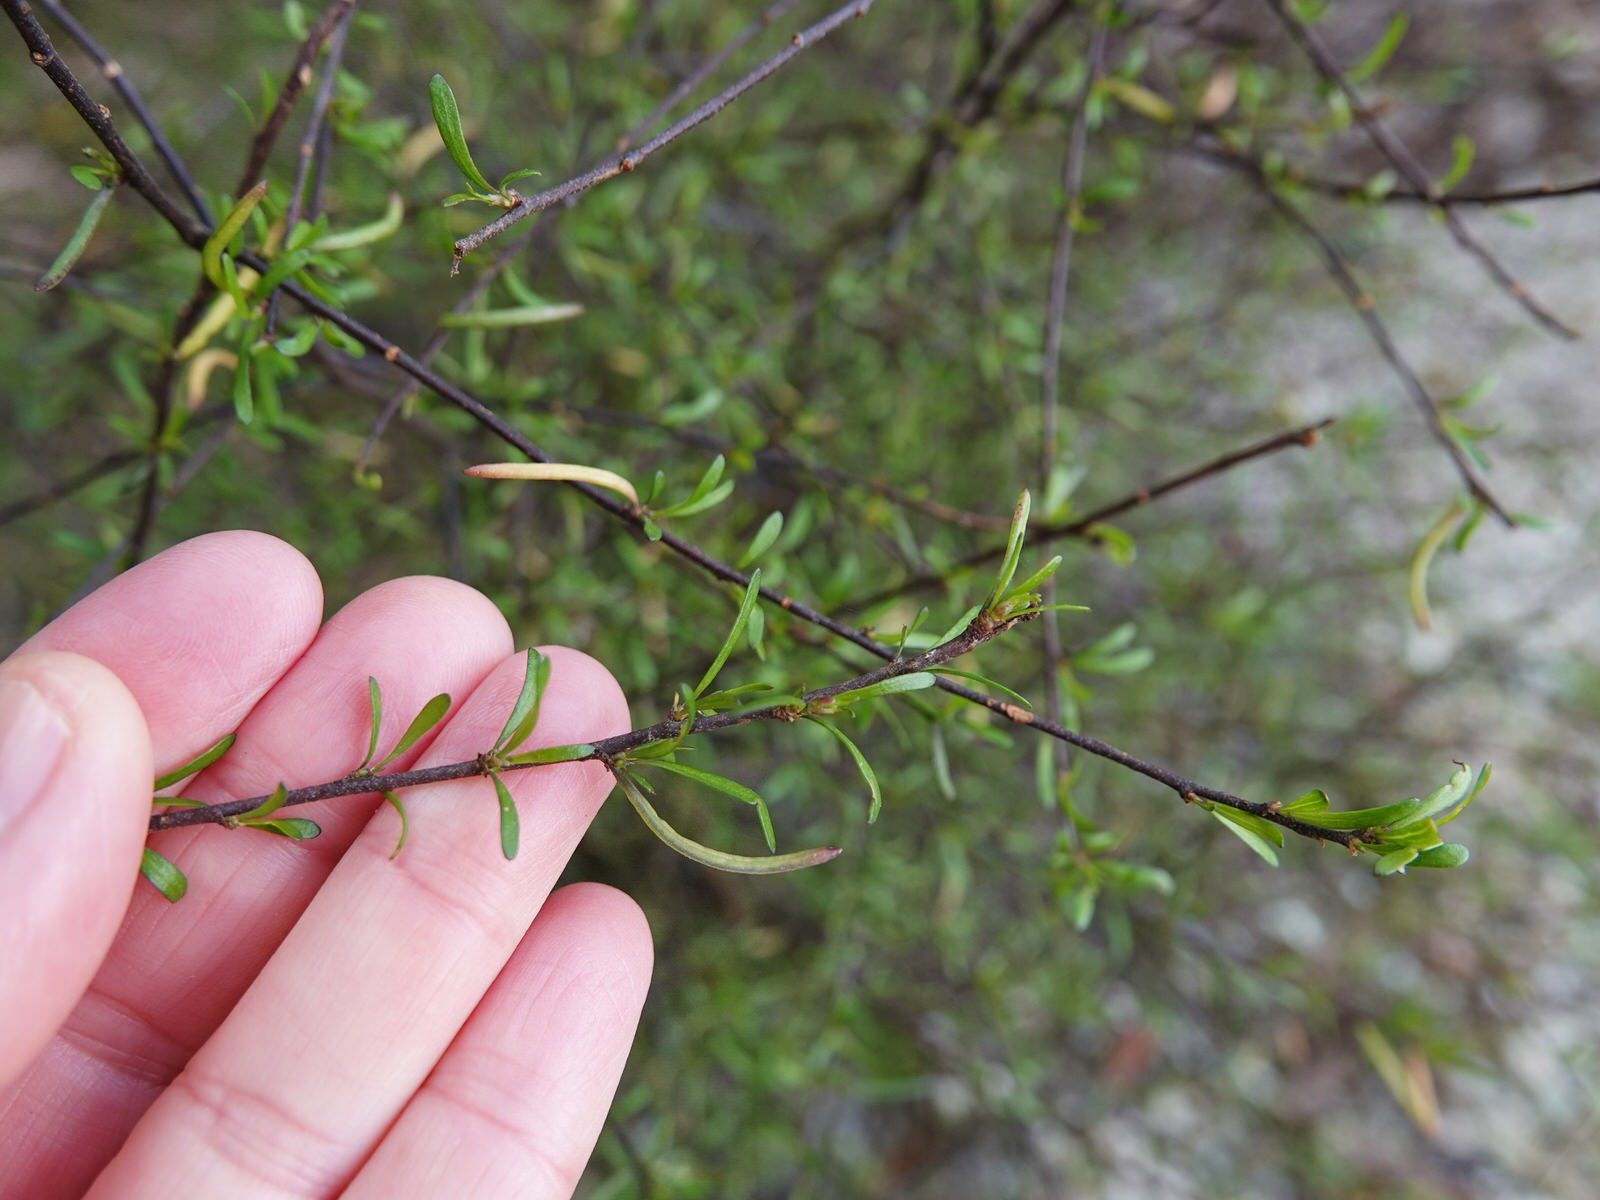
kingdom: Plantae
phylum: Tracheophyta
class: Magnoliopsida
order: Malvales
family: Malvaceae
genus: Plagianthus
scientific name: Plagianthus divaricatus
